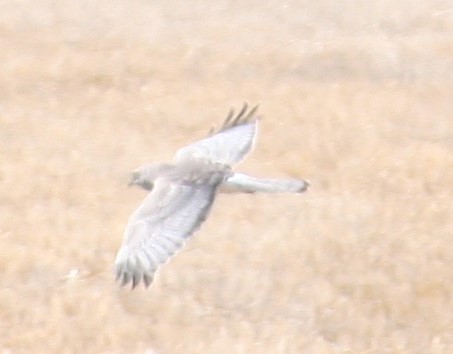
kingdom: Animalia
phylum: Chordata
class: Aves
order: Accipitriformes
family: Accipitridae
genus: Circus
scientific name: Circus cyaneus
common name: Hen harrier
